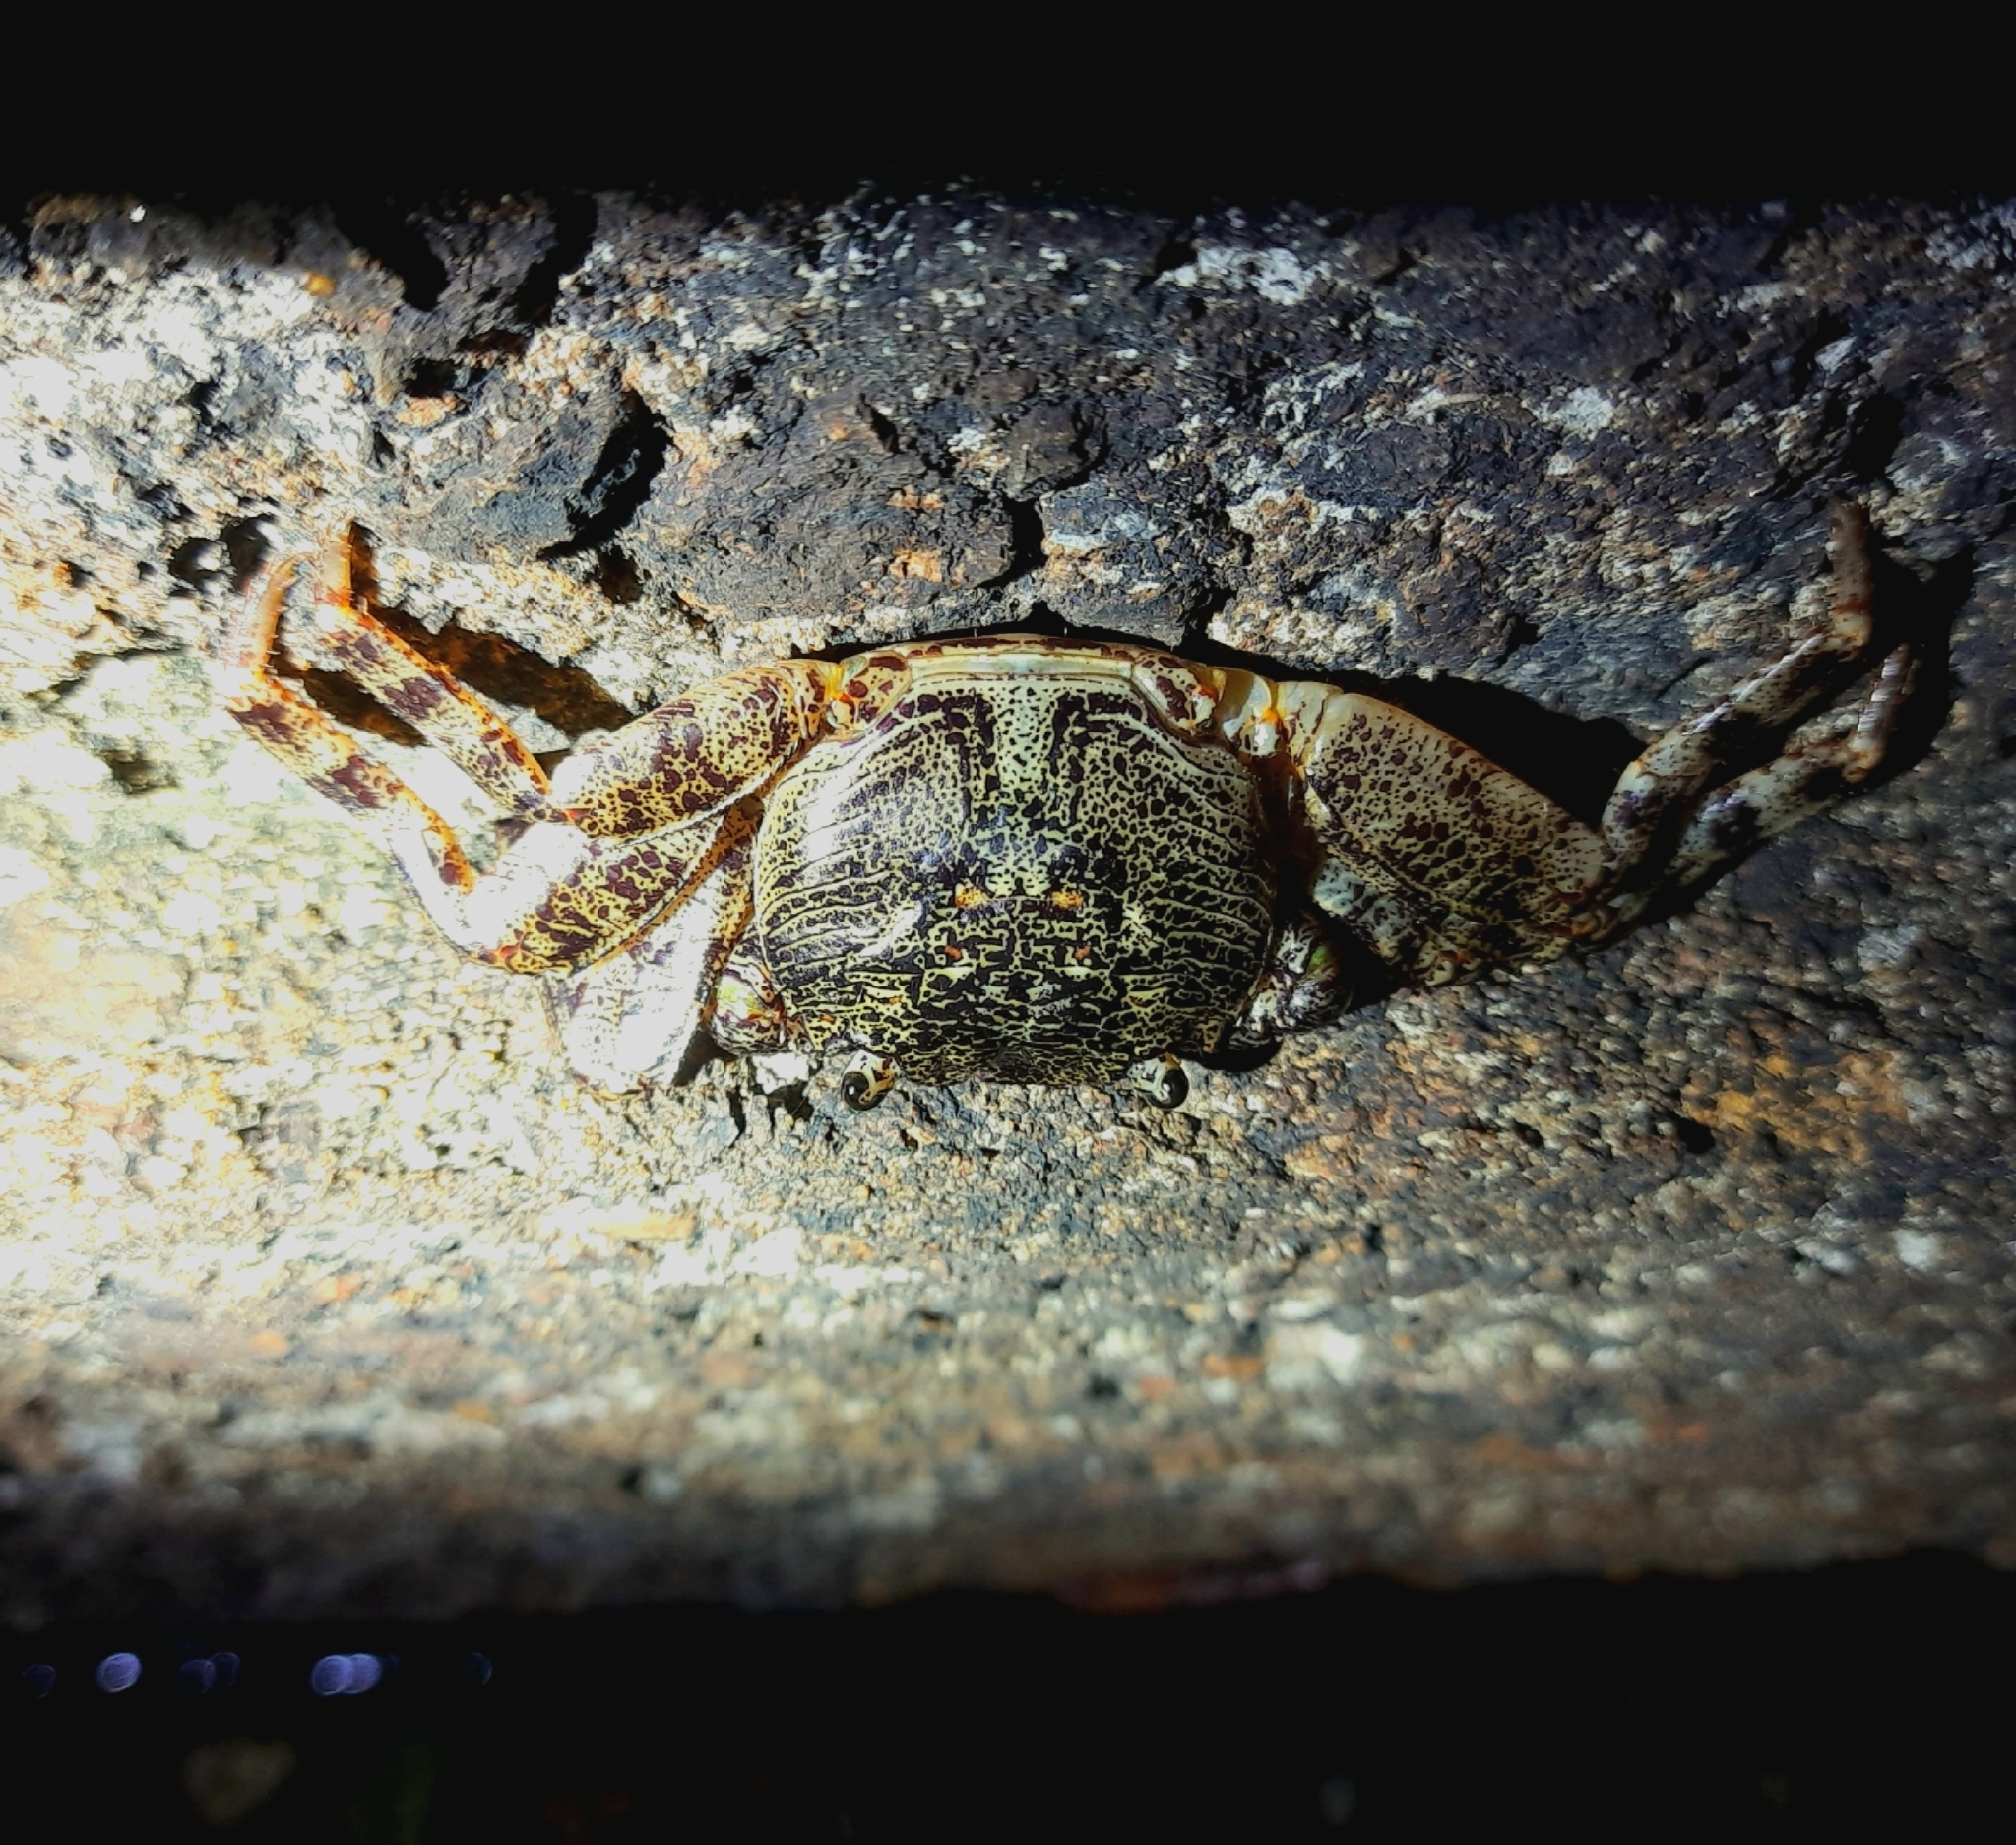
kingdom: Animalia
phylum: Arthropoda
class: Malacostraca
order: Decapoda
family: Grapsidae
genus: Leptograpsus
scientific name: Leptograpsus variegatus
